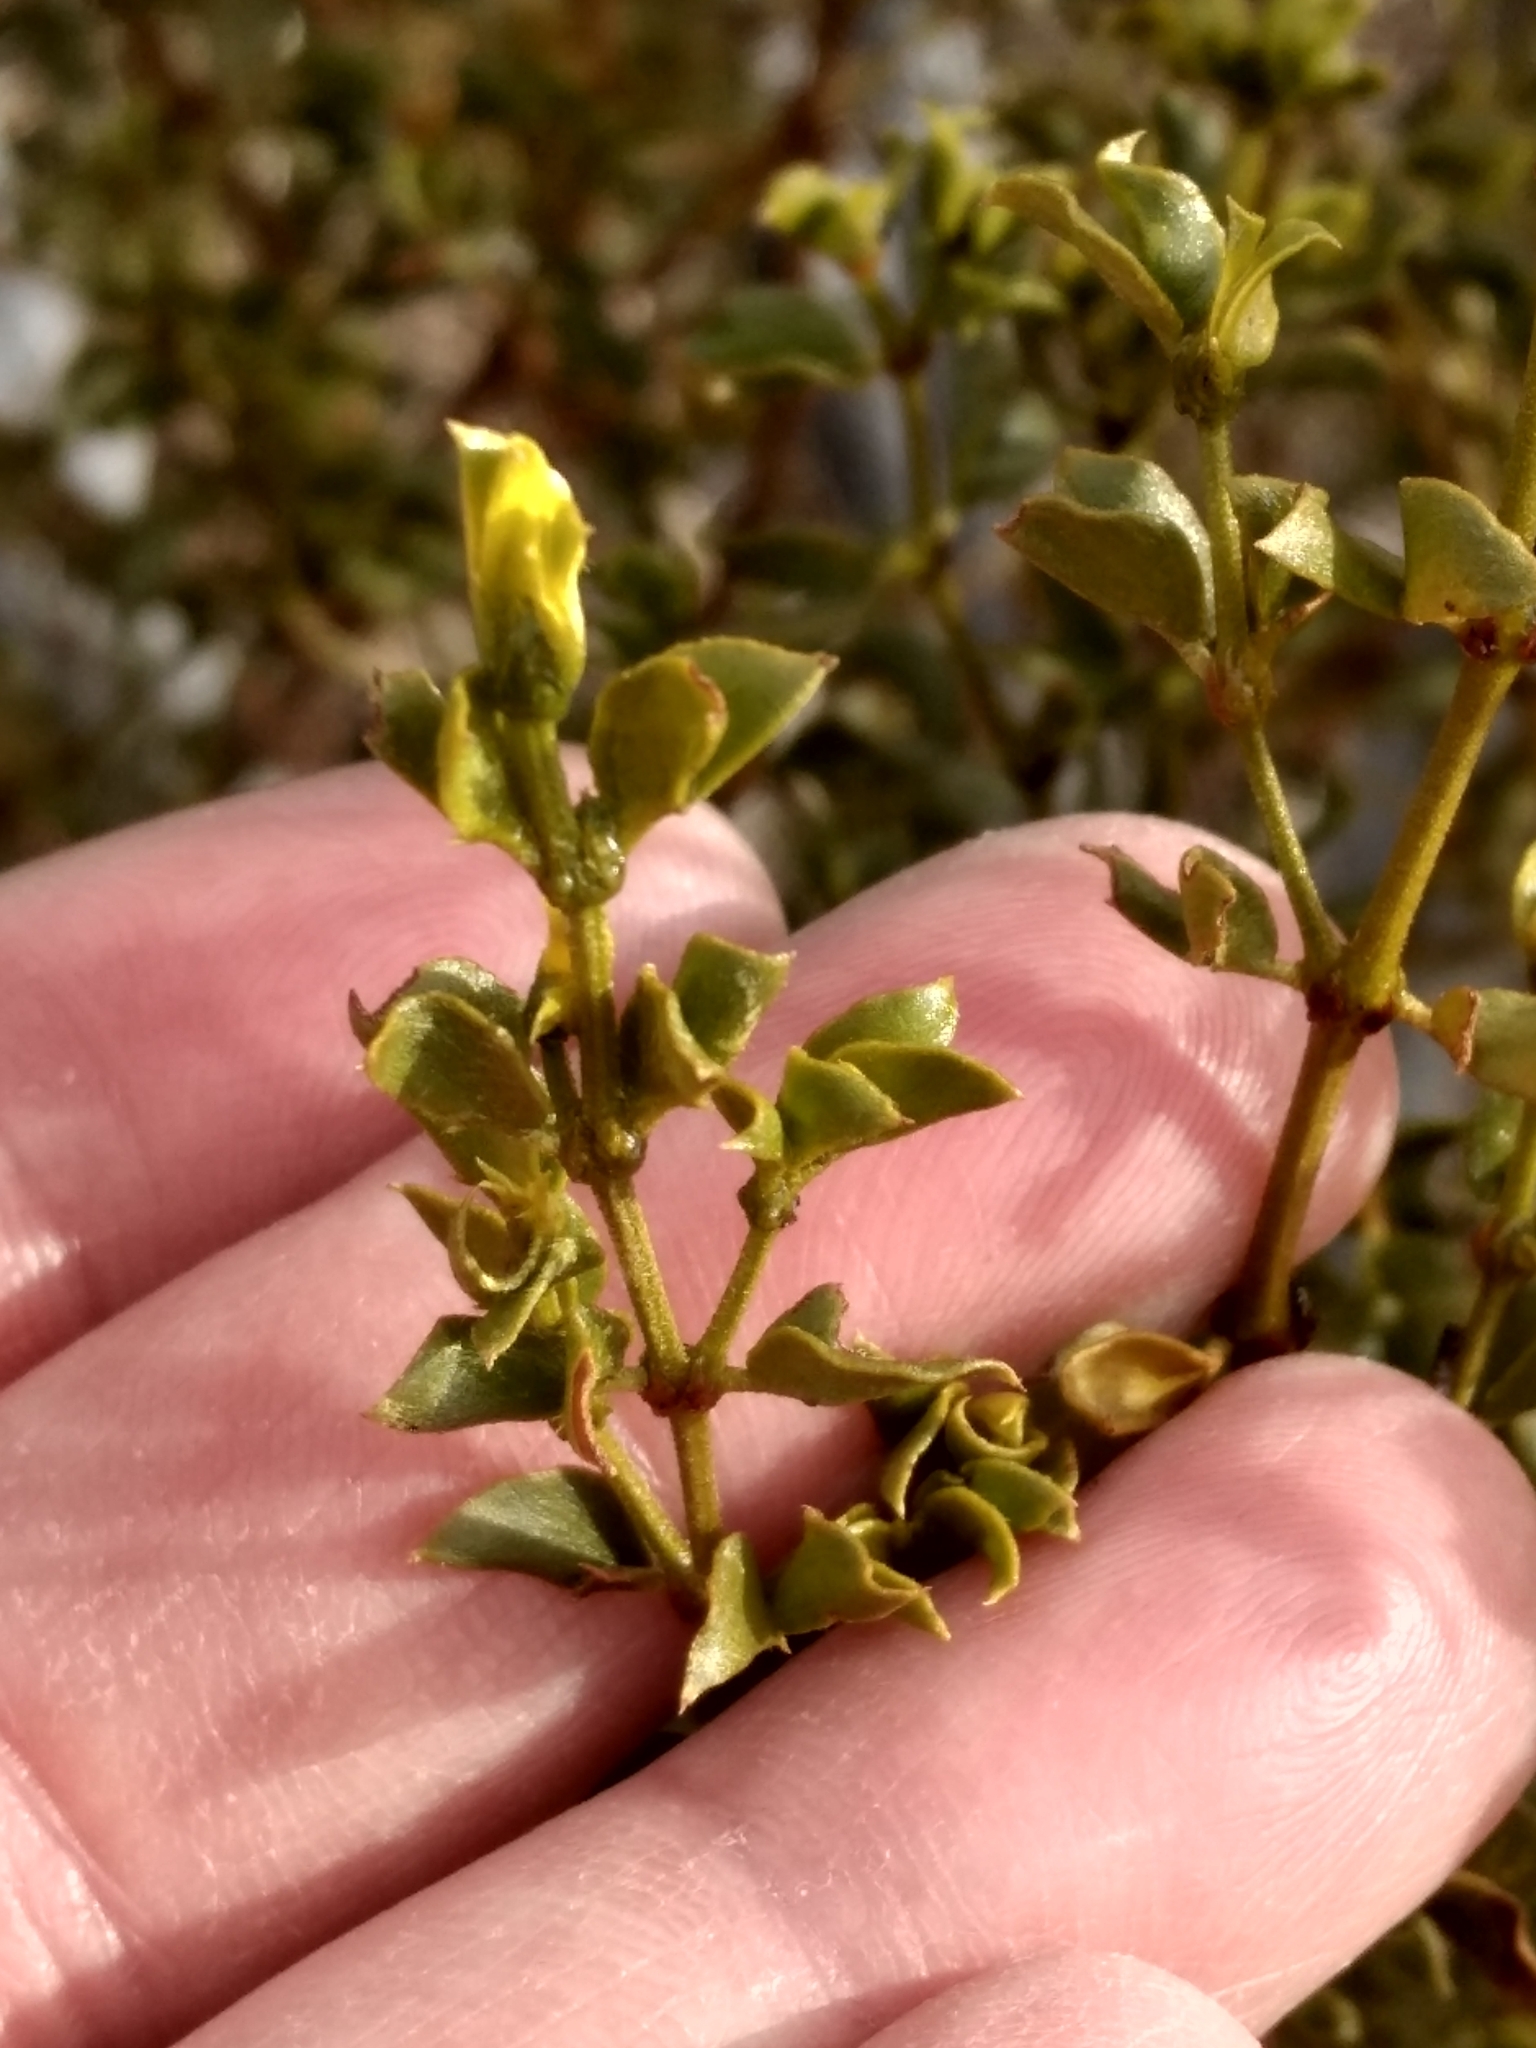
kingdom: Plantae
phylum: Tracheophyta
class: Magnoliopsida
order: Zygophyllales
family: Zygophyllaceae
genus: Larrea
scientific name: Larrea tridentata
